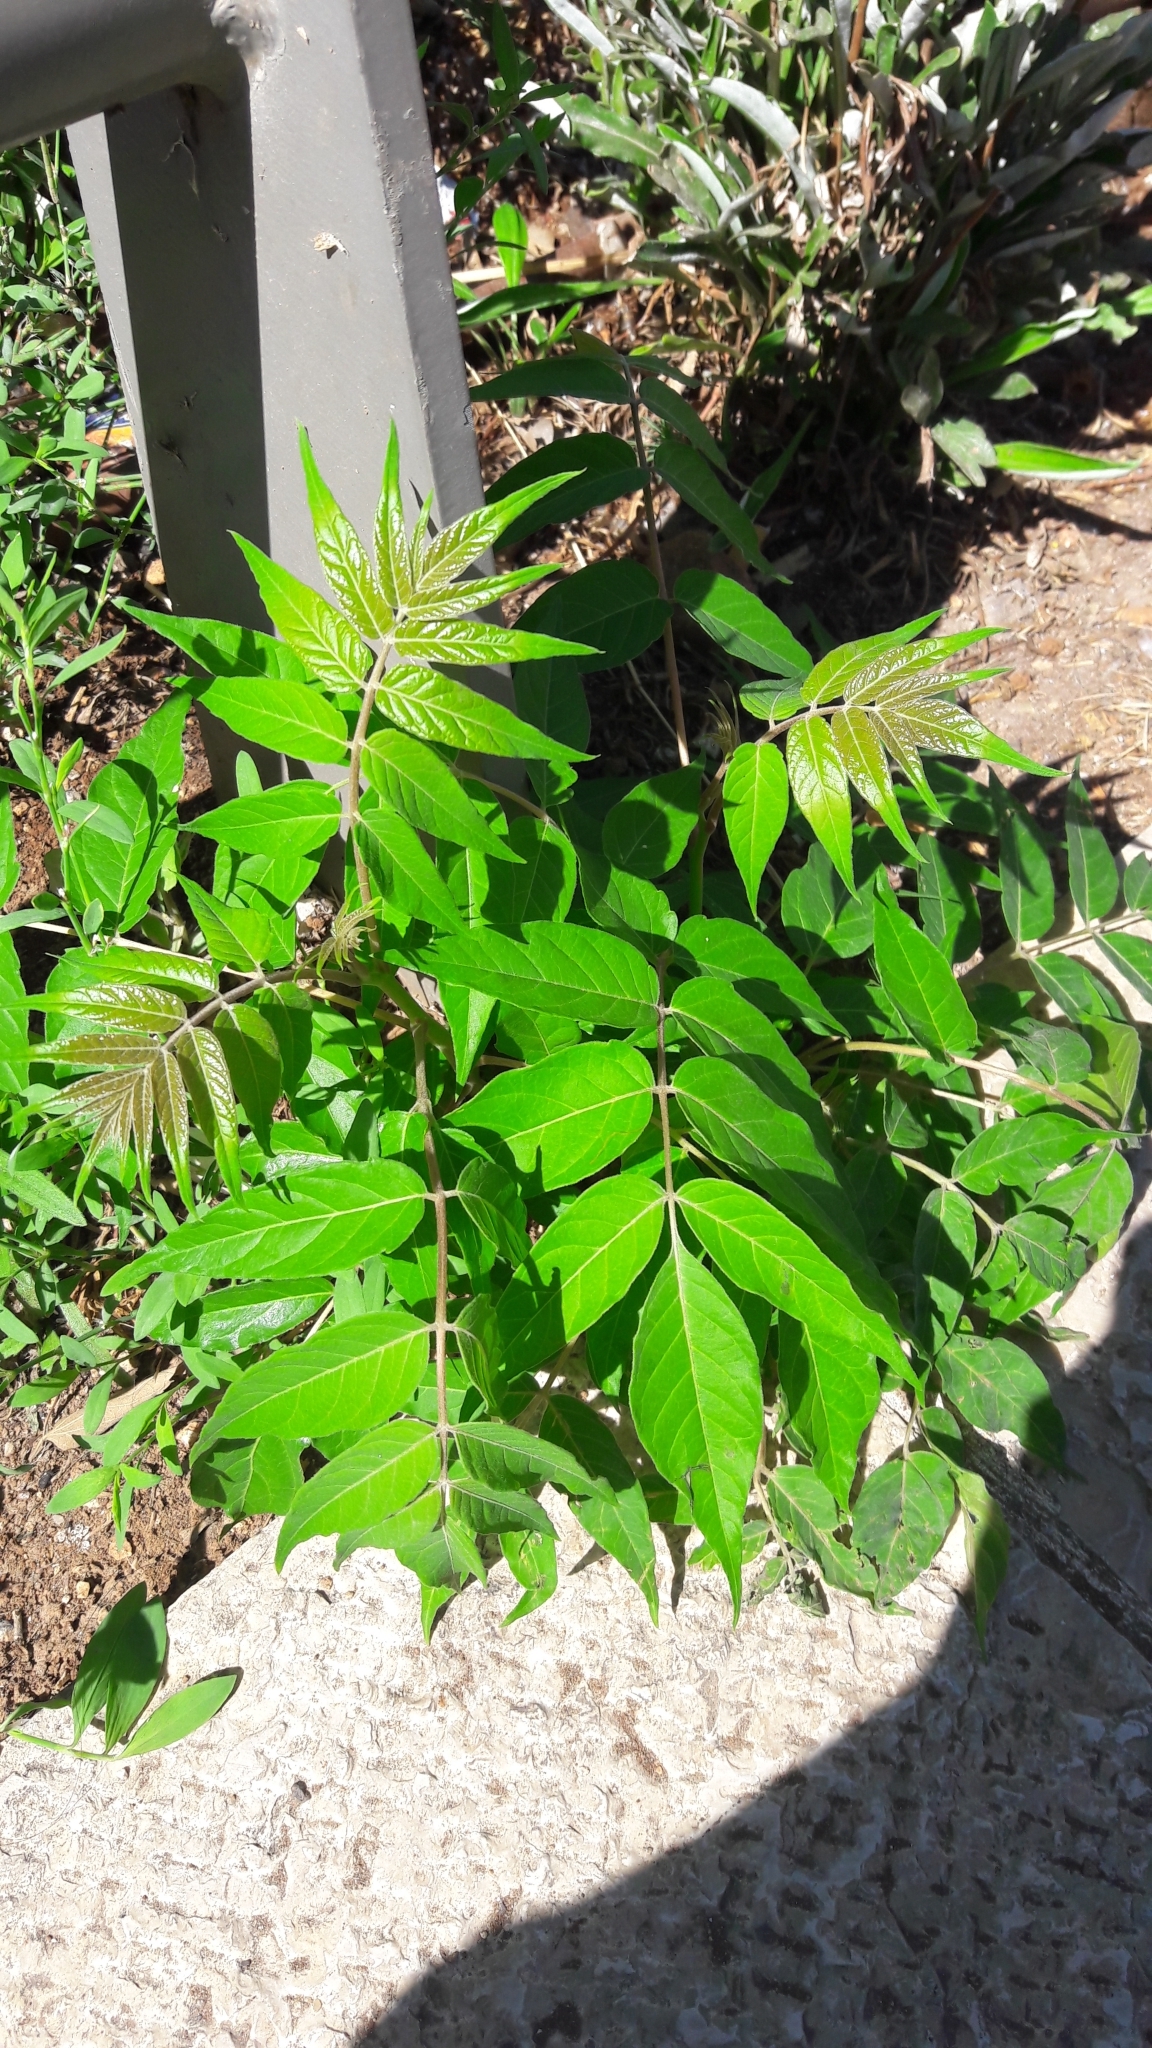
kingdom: Plantae
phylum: Tracheophyta
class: Magnoliopsida
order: Sapindales
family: Simaroubaceae
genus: Ailanthus
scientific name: Ailanthus altissima
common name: Tree-of-heaven
